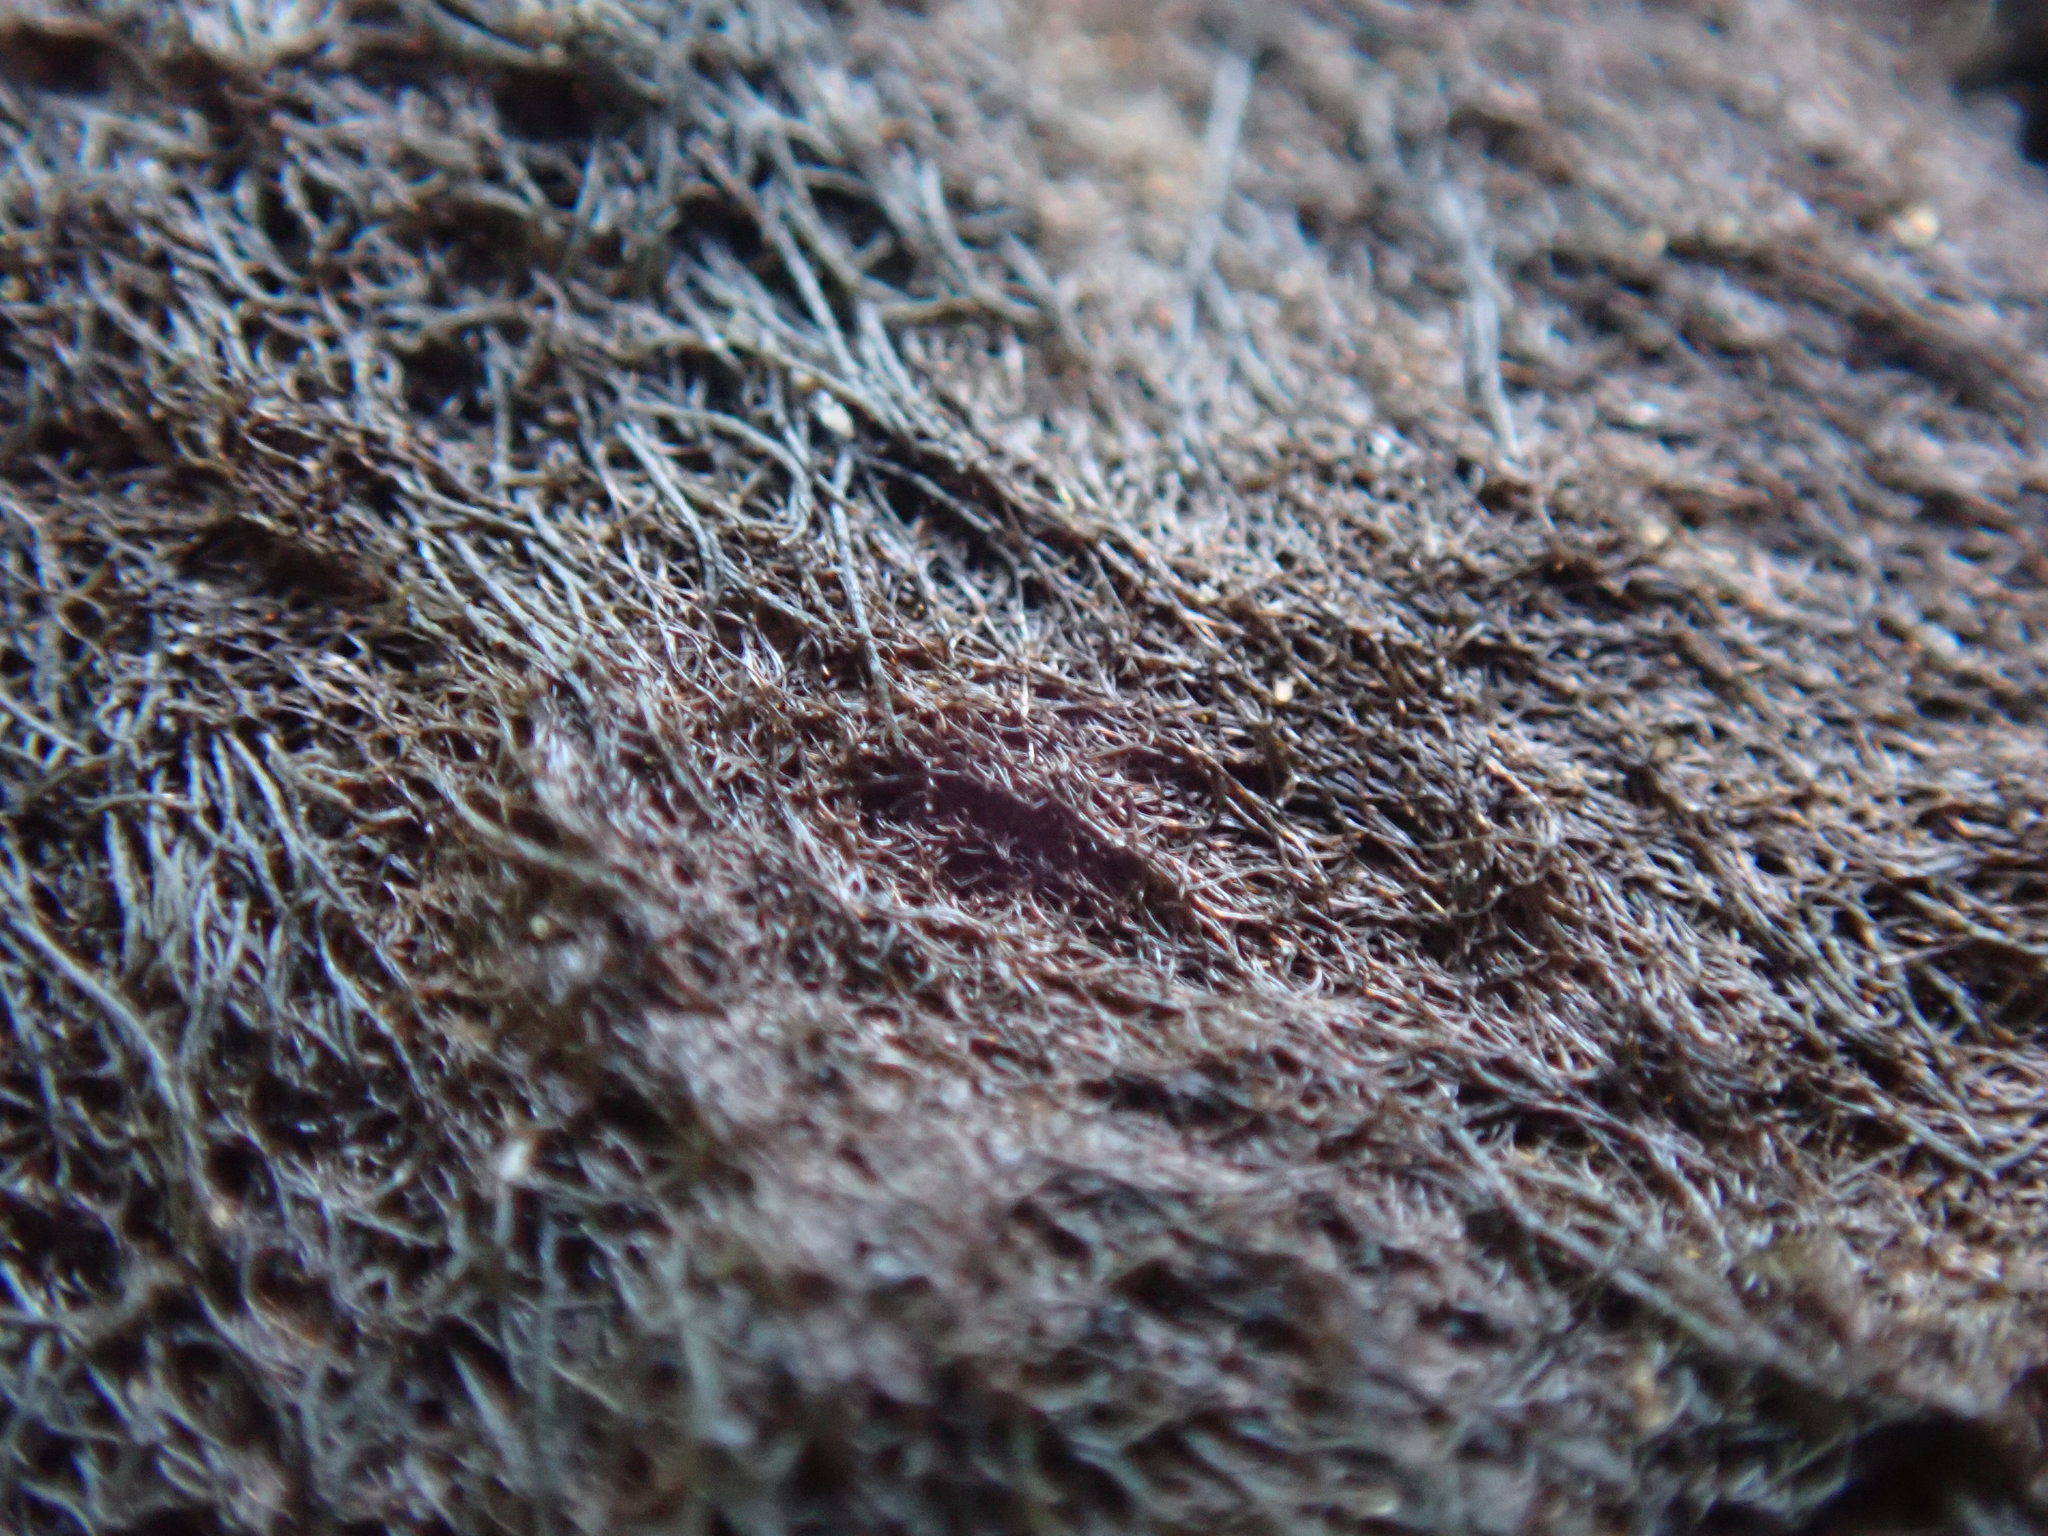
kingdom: Fungi
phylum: Ascomycota
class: Lecanoromycetes
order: Lecanorales
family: Parmeliaceae
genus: Pseudephebe
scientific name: Pseudephebe pubescens
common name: Fine rockwool lichen
